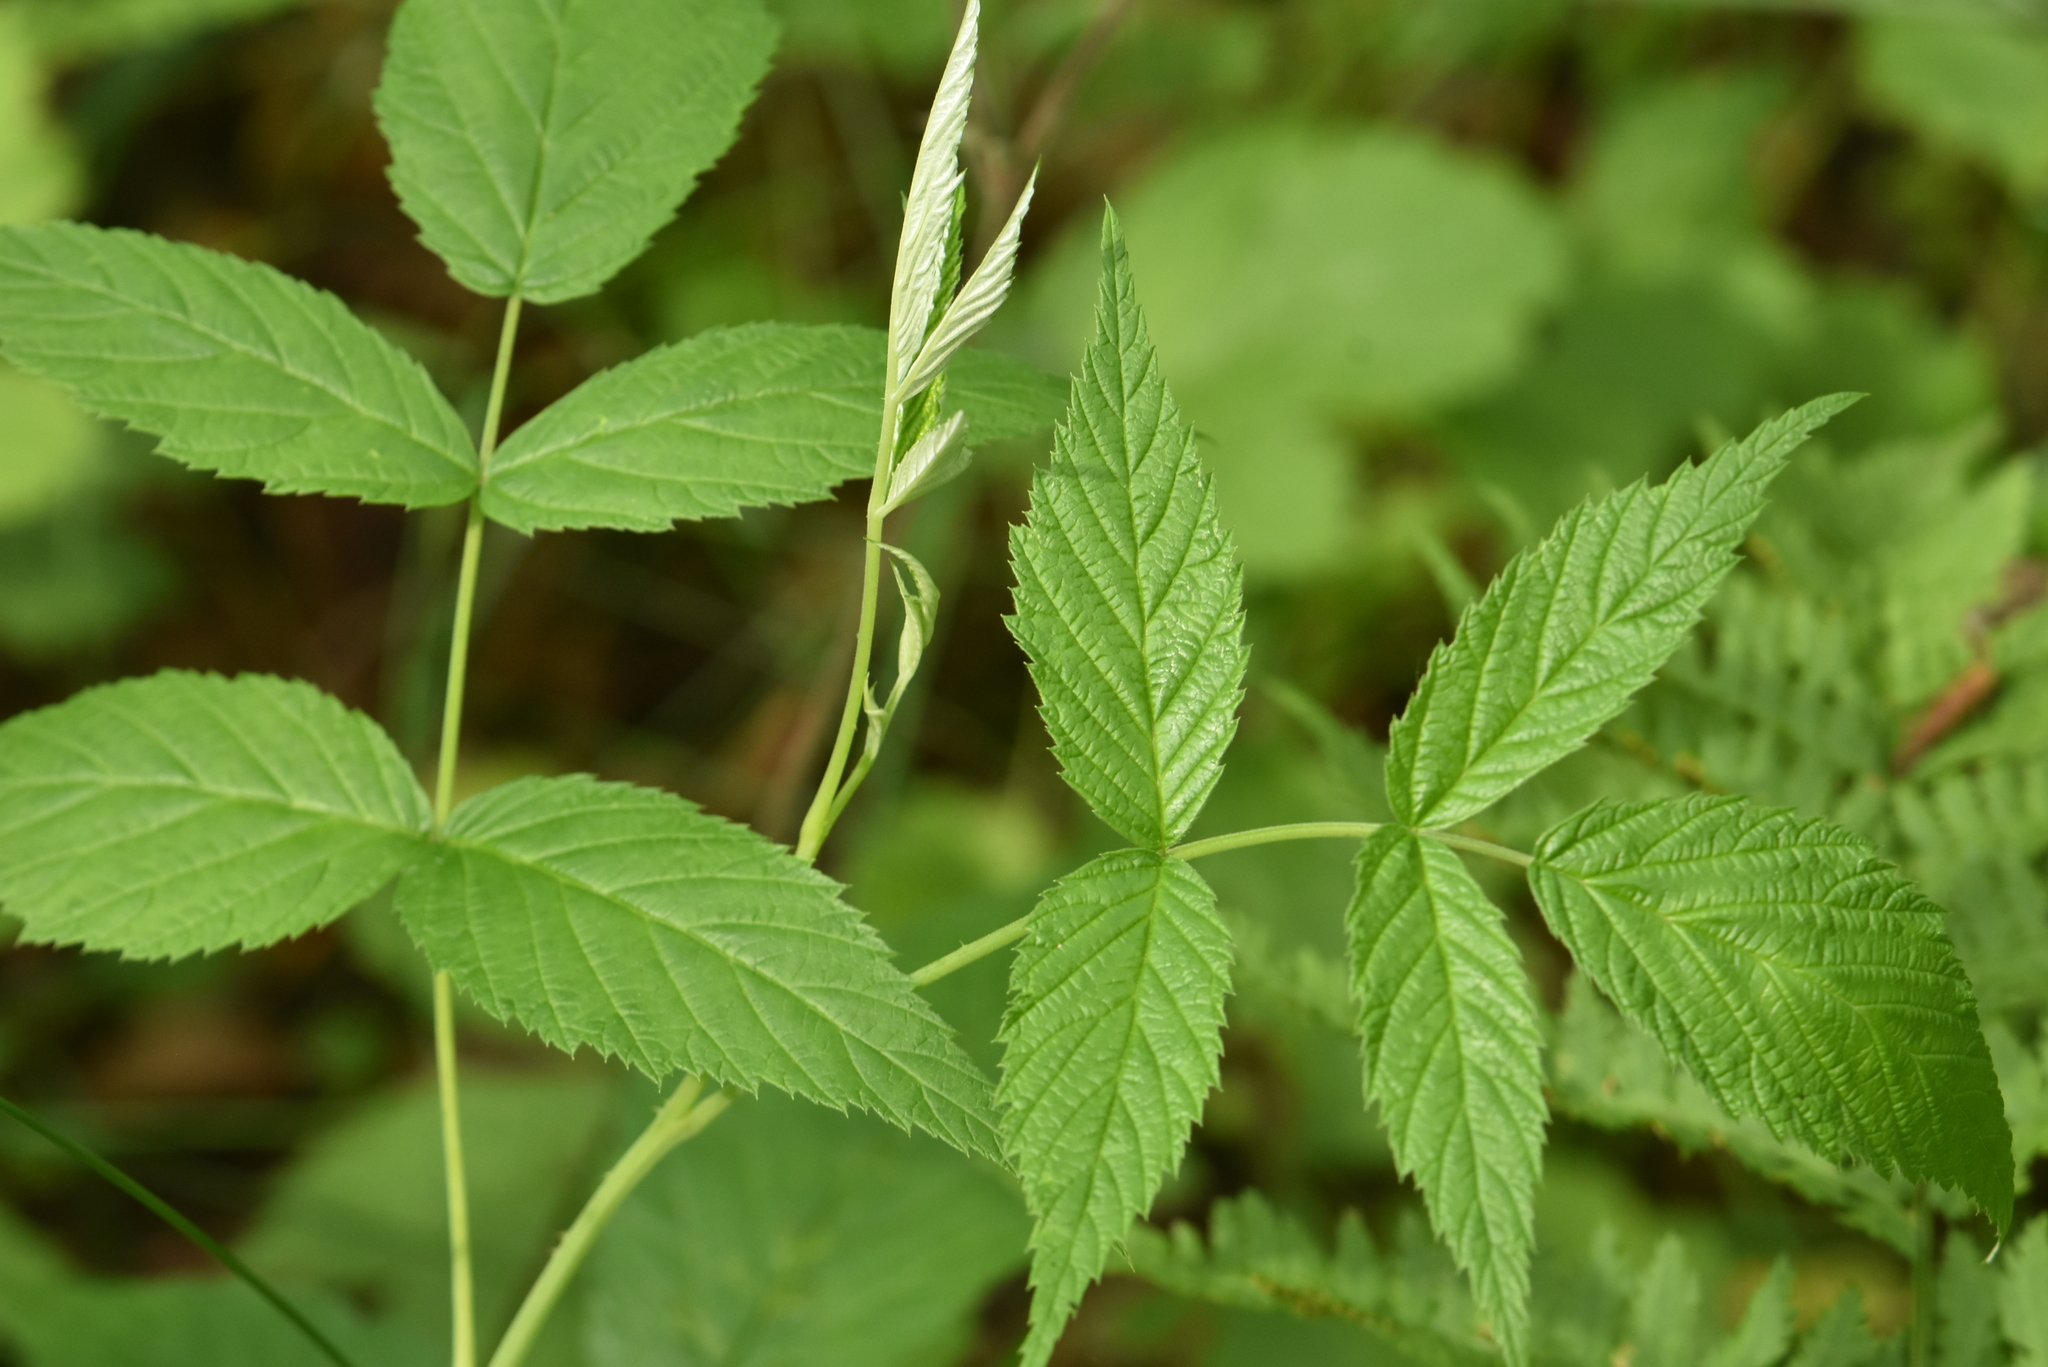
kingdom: Plantae
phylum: Tracheophyta
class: Magnoliopsida
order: Rosales
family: Rosaceae
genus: Rubus
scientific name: Rubus idaeus
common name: Raspberry
